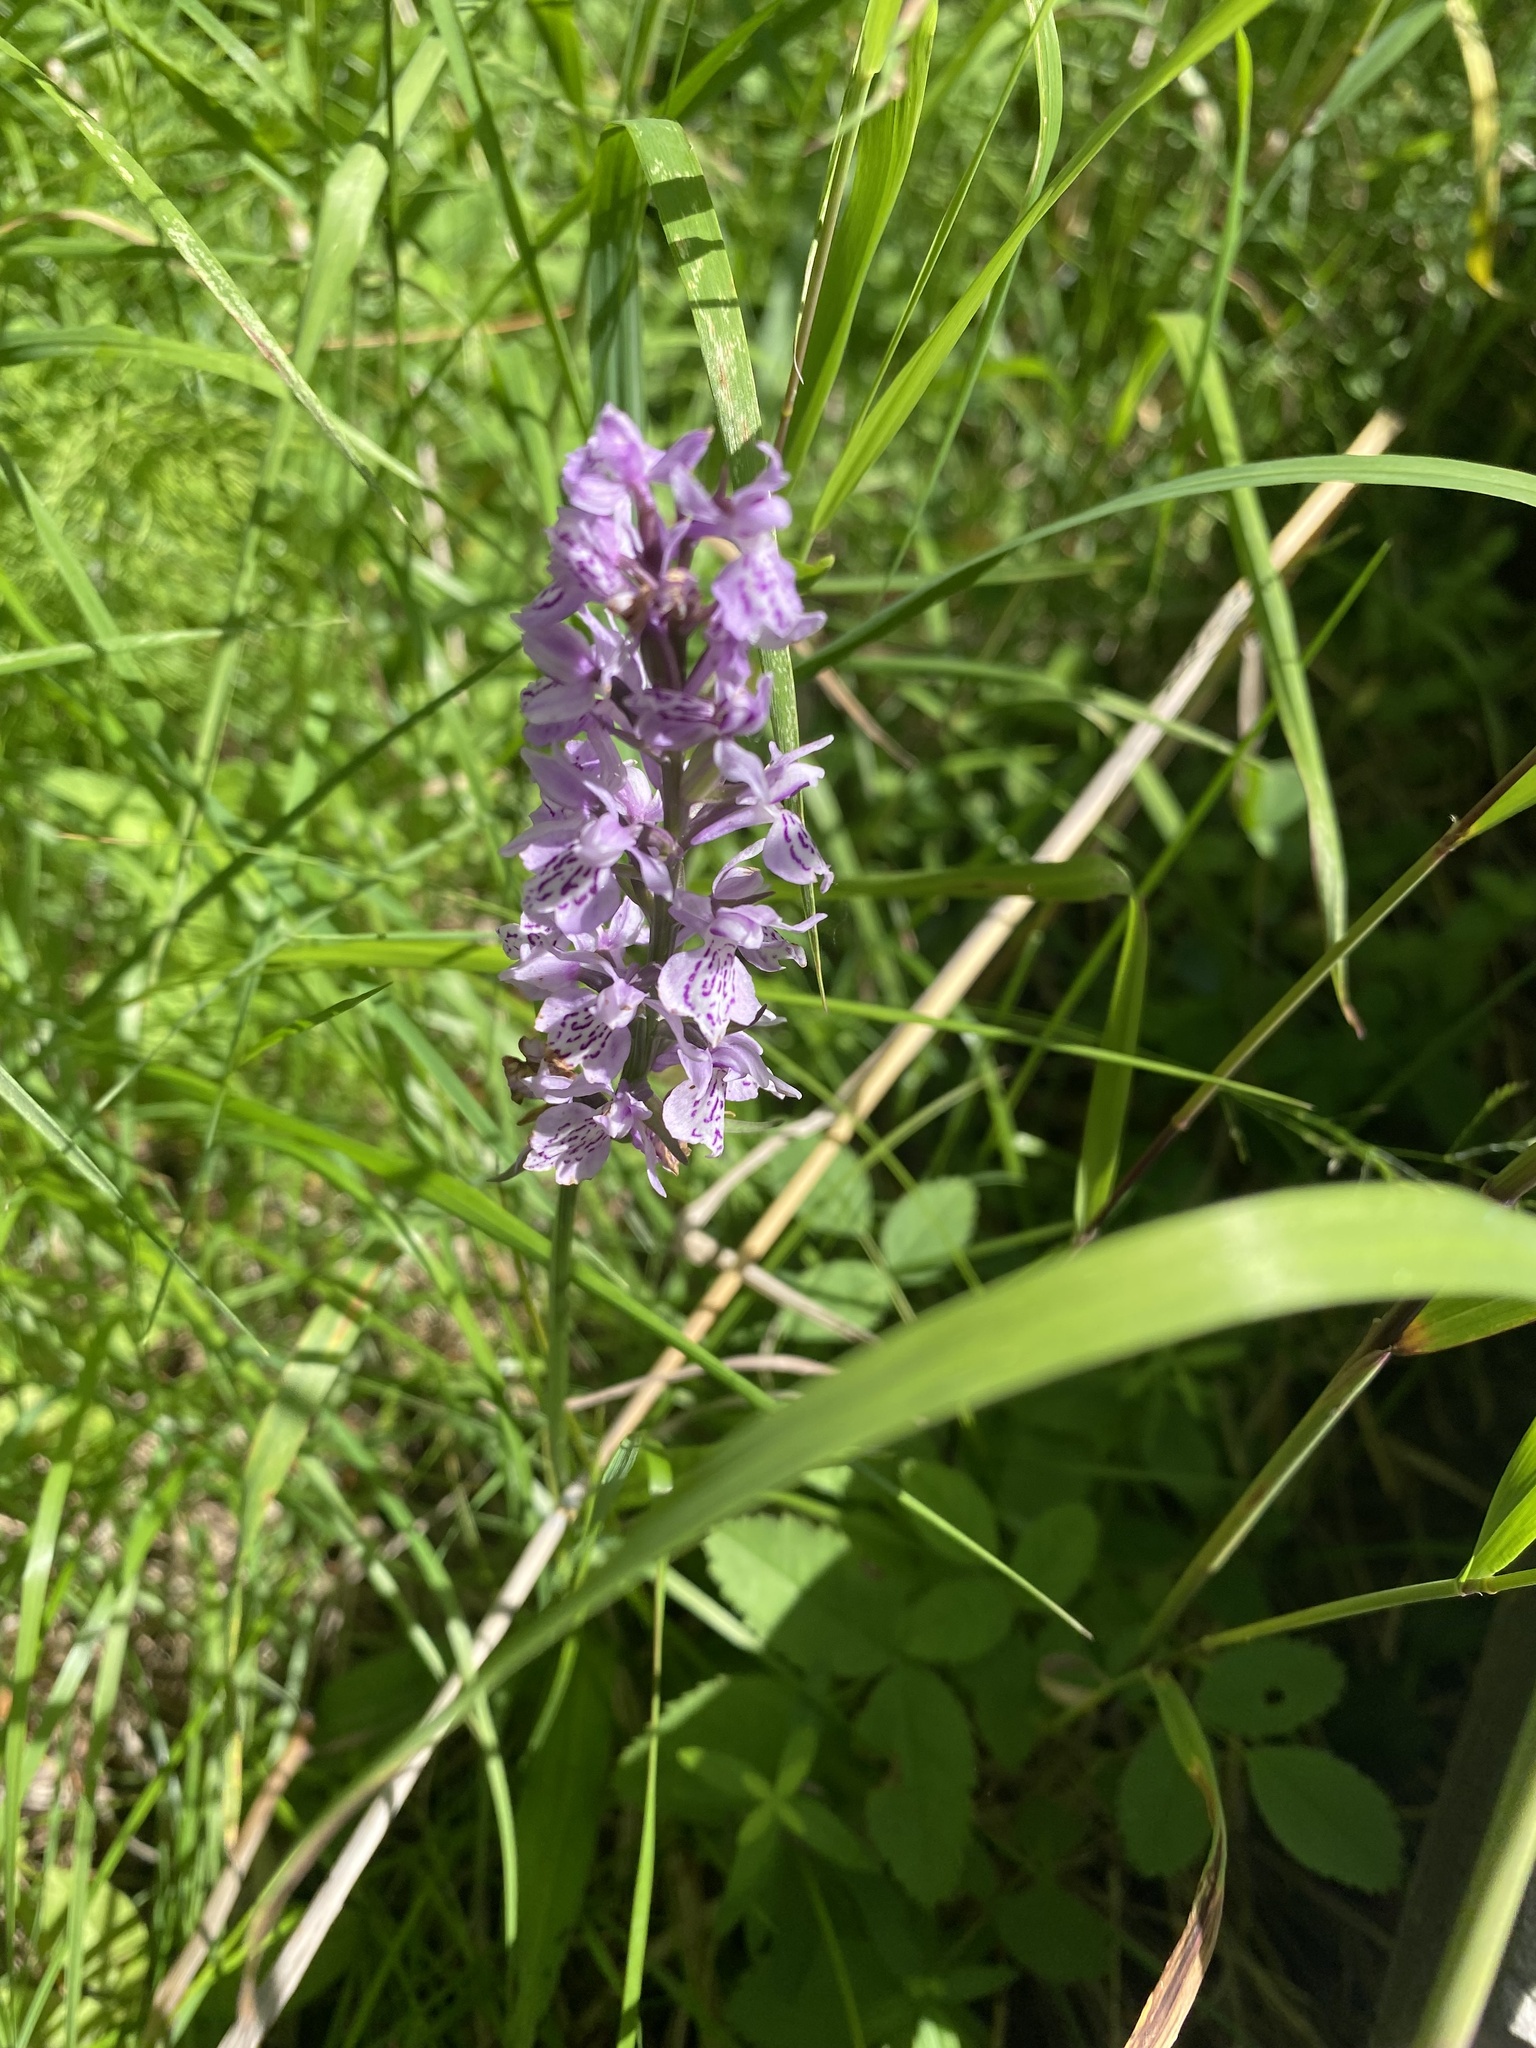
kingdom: Plantae
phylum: Tracheophyta
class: Liliopsida
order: Asparagales
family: Orchidaceae
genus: Dactylorhiza
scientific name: Dactylorhiza maculata
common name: Heath spotted-orchid
